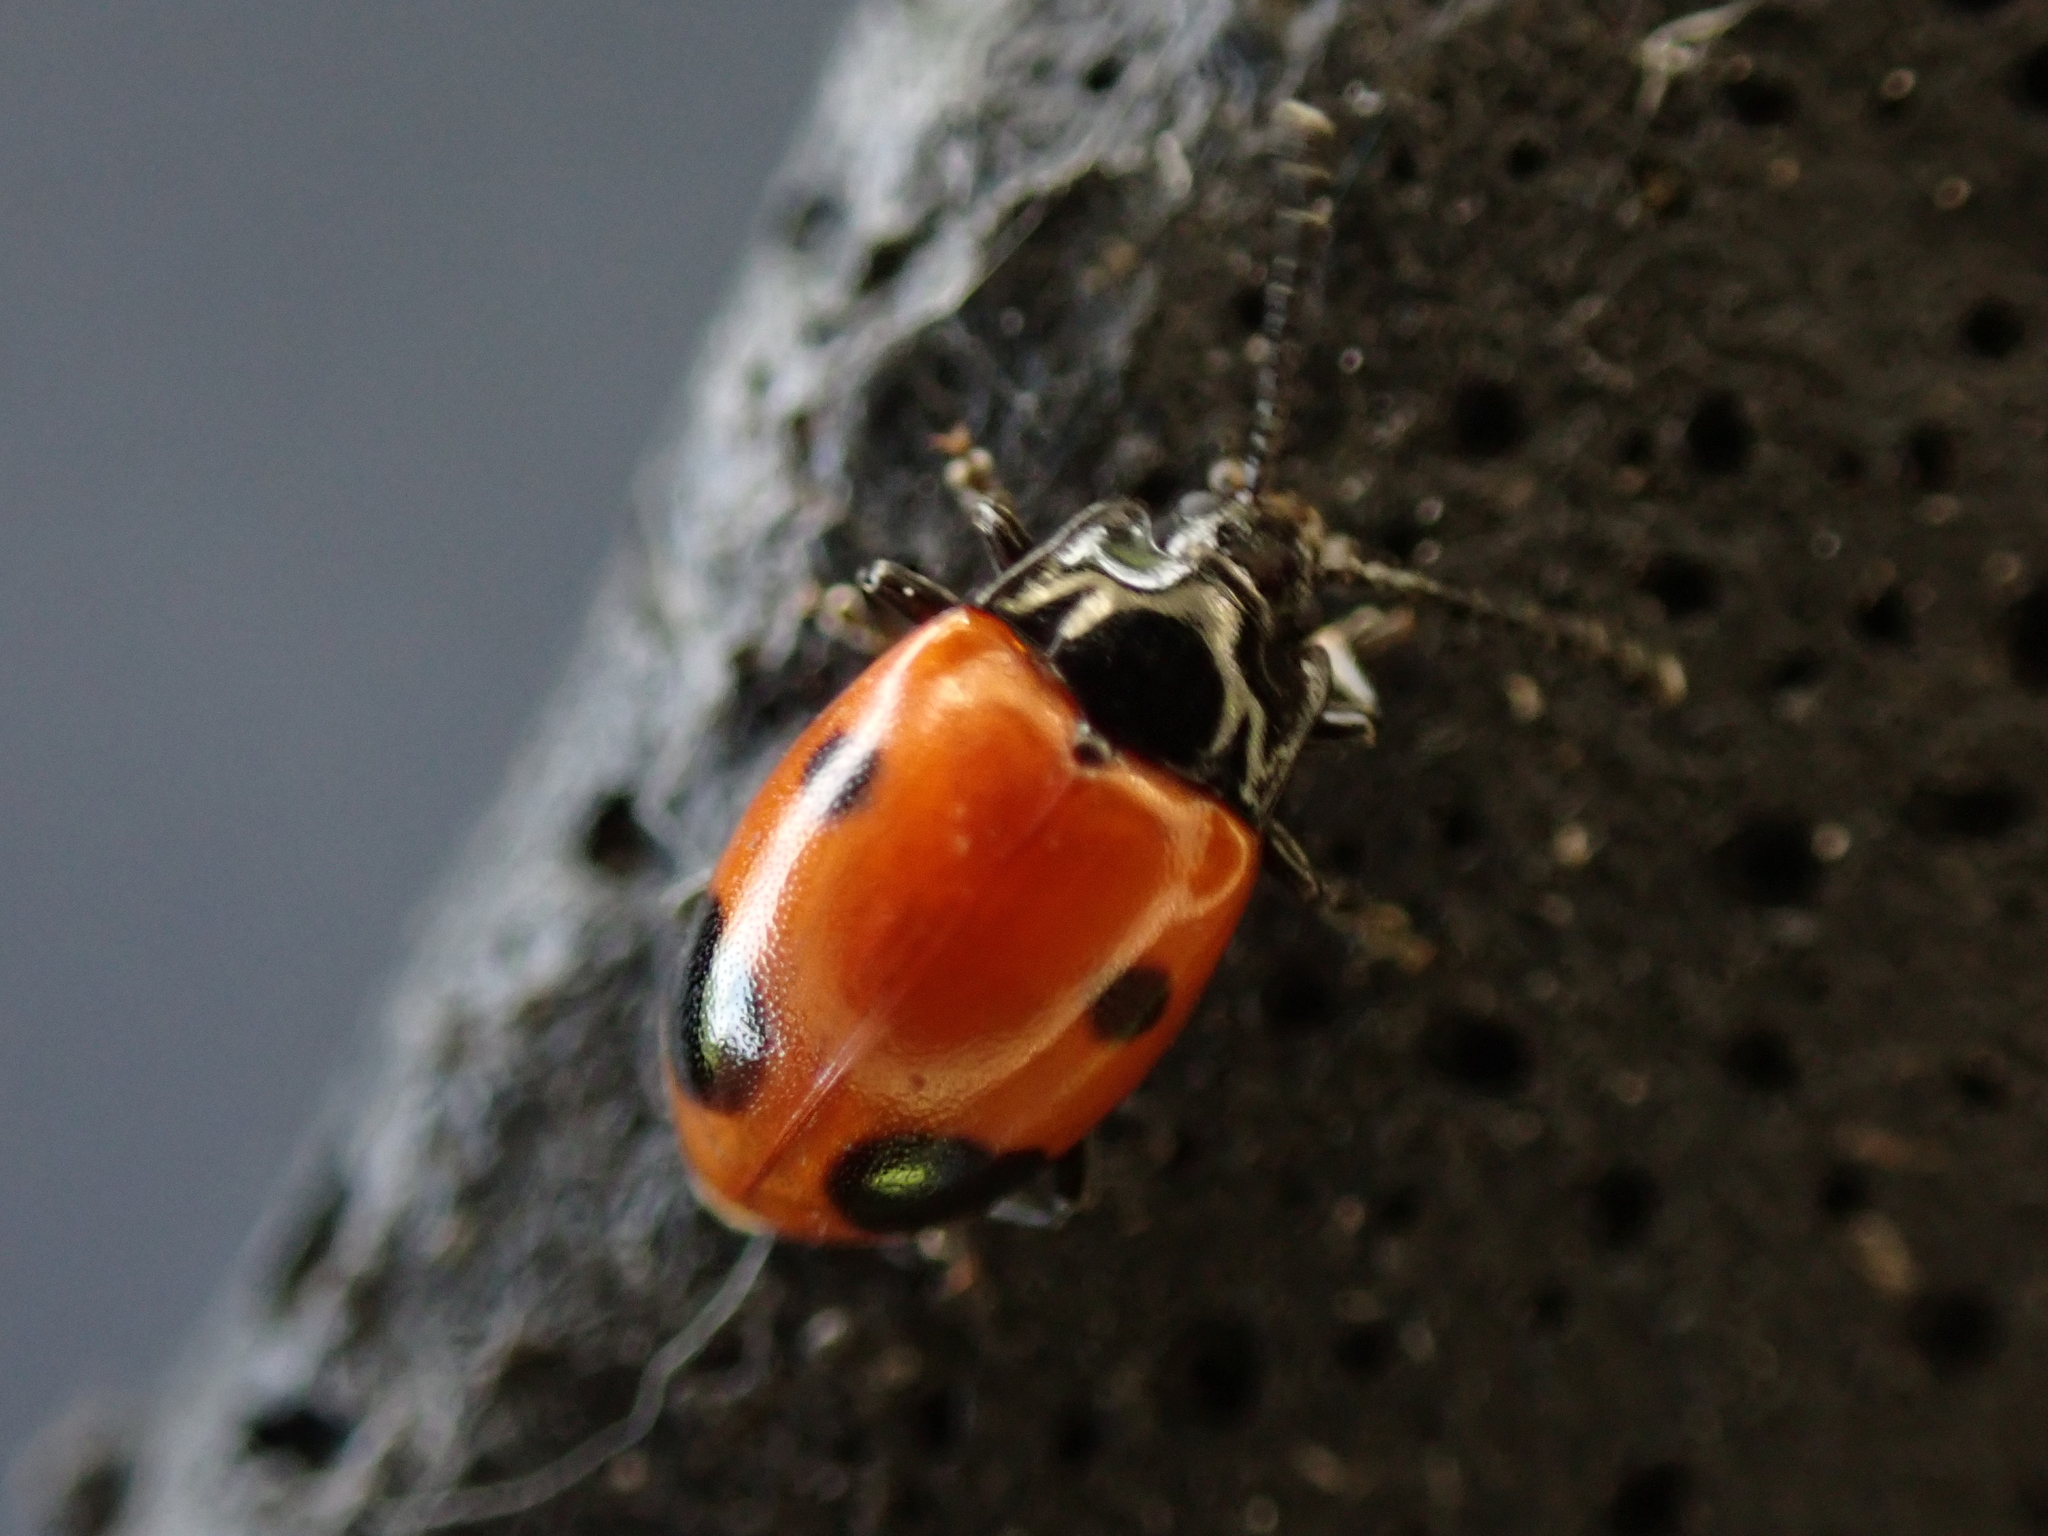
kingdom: Animalia
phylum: Arthropoda
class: Insecta
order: Coleoptera
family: Endomychidae
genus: Endomychus
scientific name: Endomychus biguttatus
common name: Handsome fungus beetle
